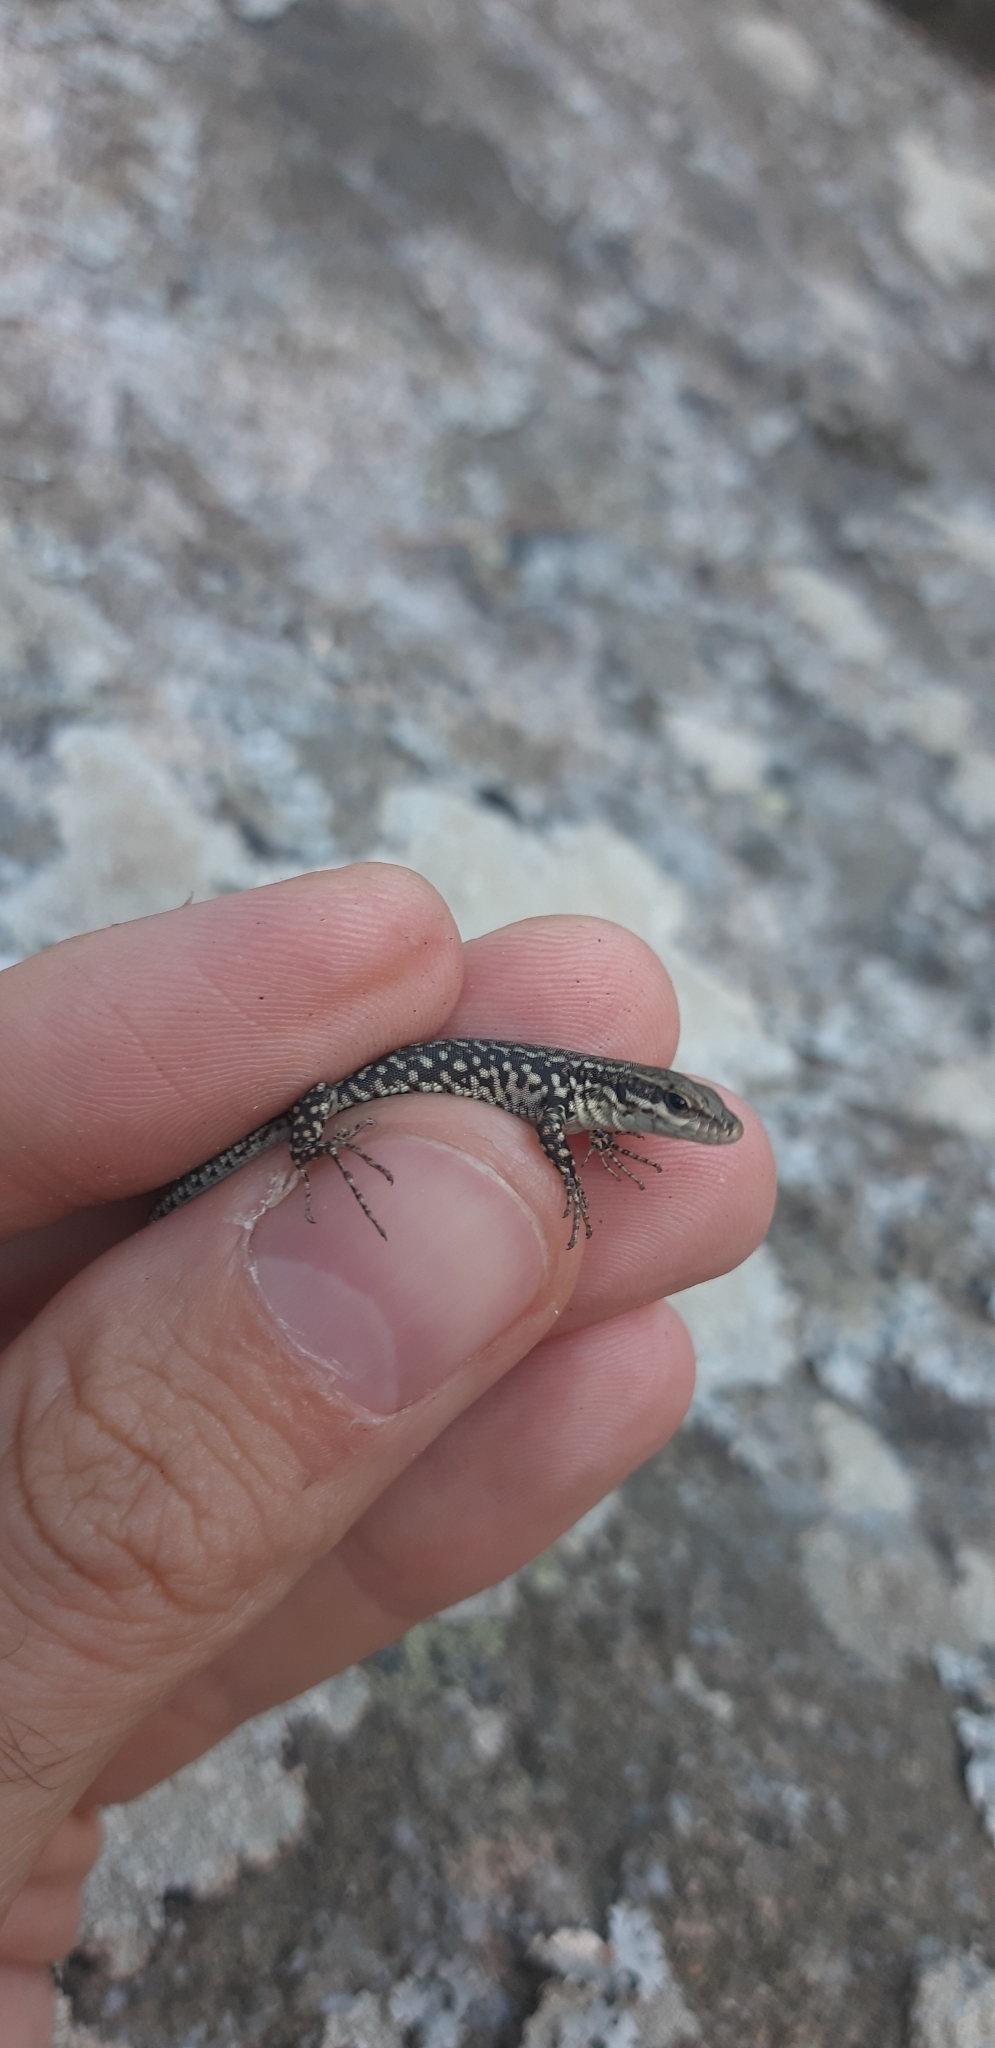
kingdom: Animalia
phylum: Chordata
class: Squamata
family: Lacertidae
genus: Podarcis
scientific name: Podarcis muralis
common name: Common wall lizard
